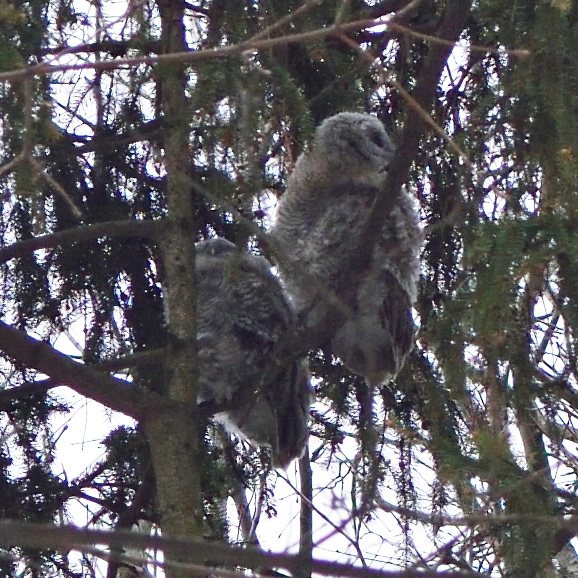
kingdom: Animalia
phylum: Chordata
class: Aves
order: Strigiformes
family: Strigidae
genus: Strix
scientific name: Strix aluco
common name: Tawny owl
